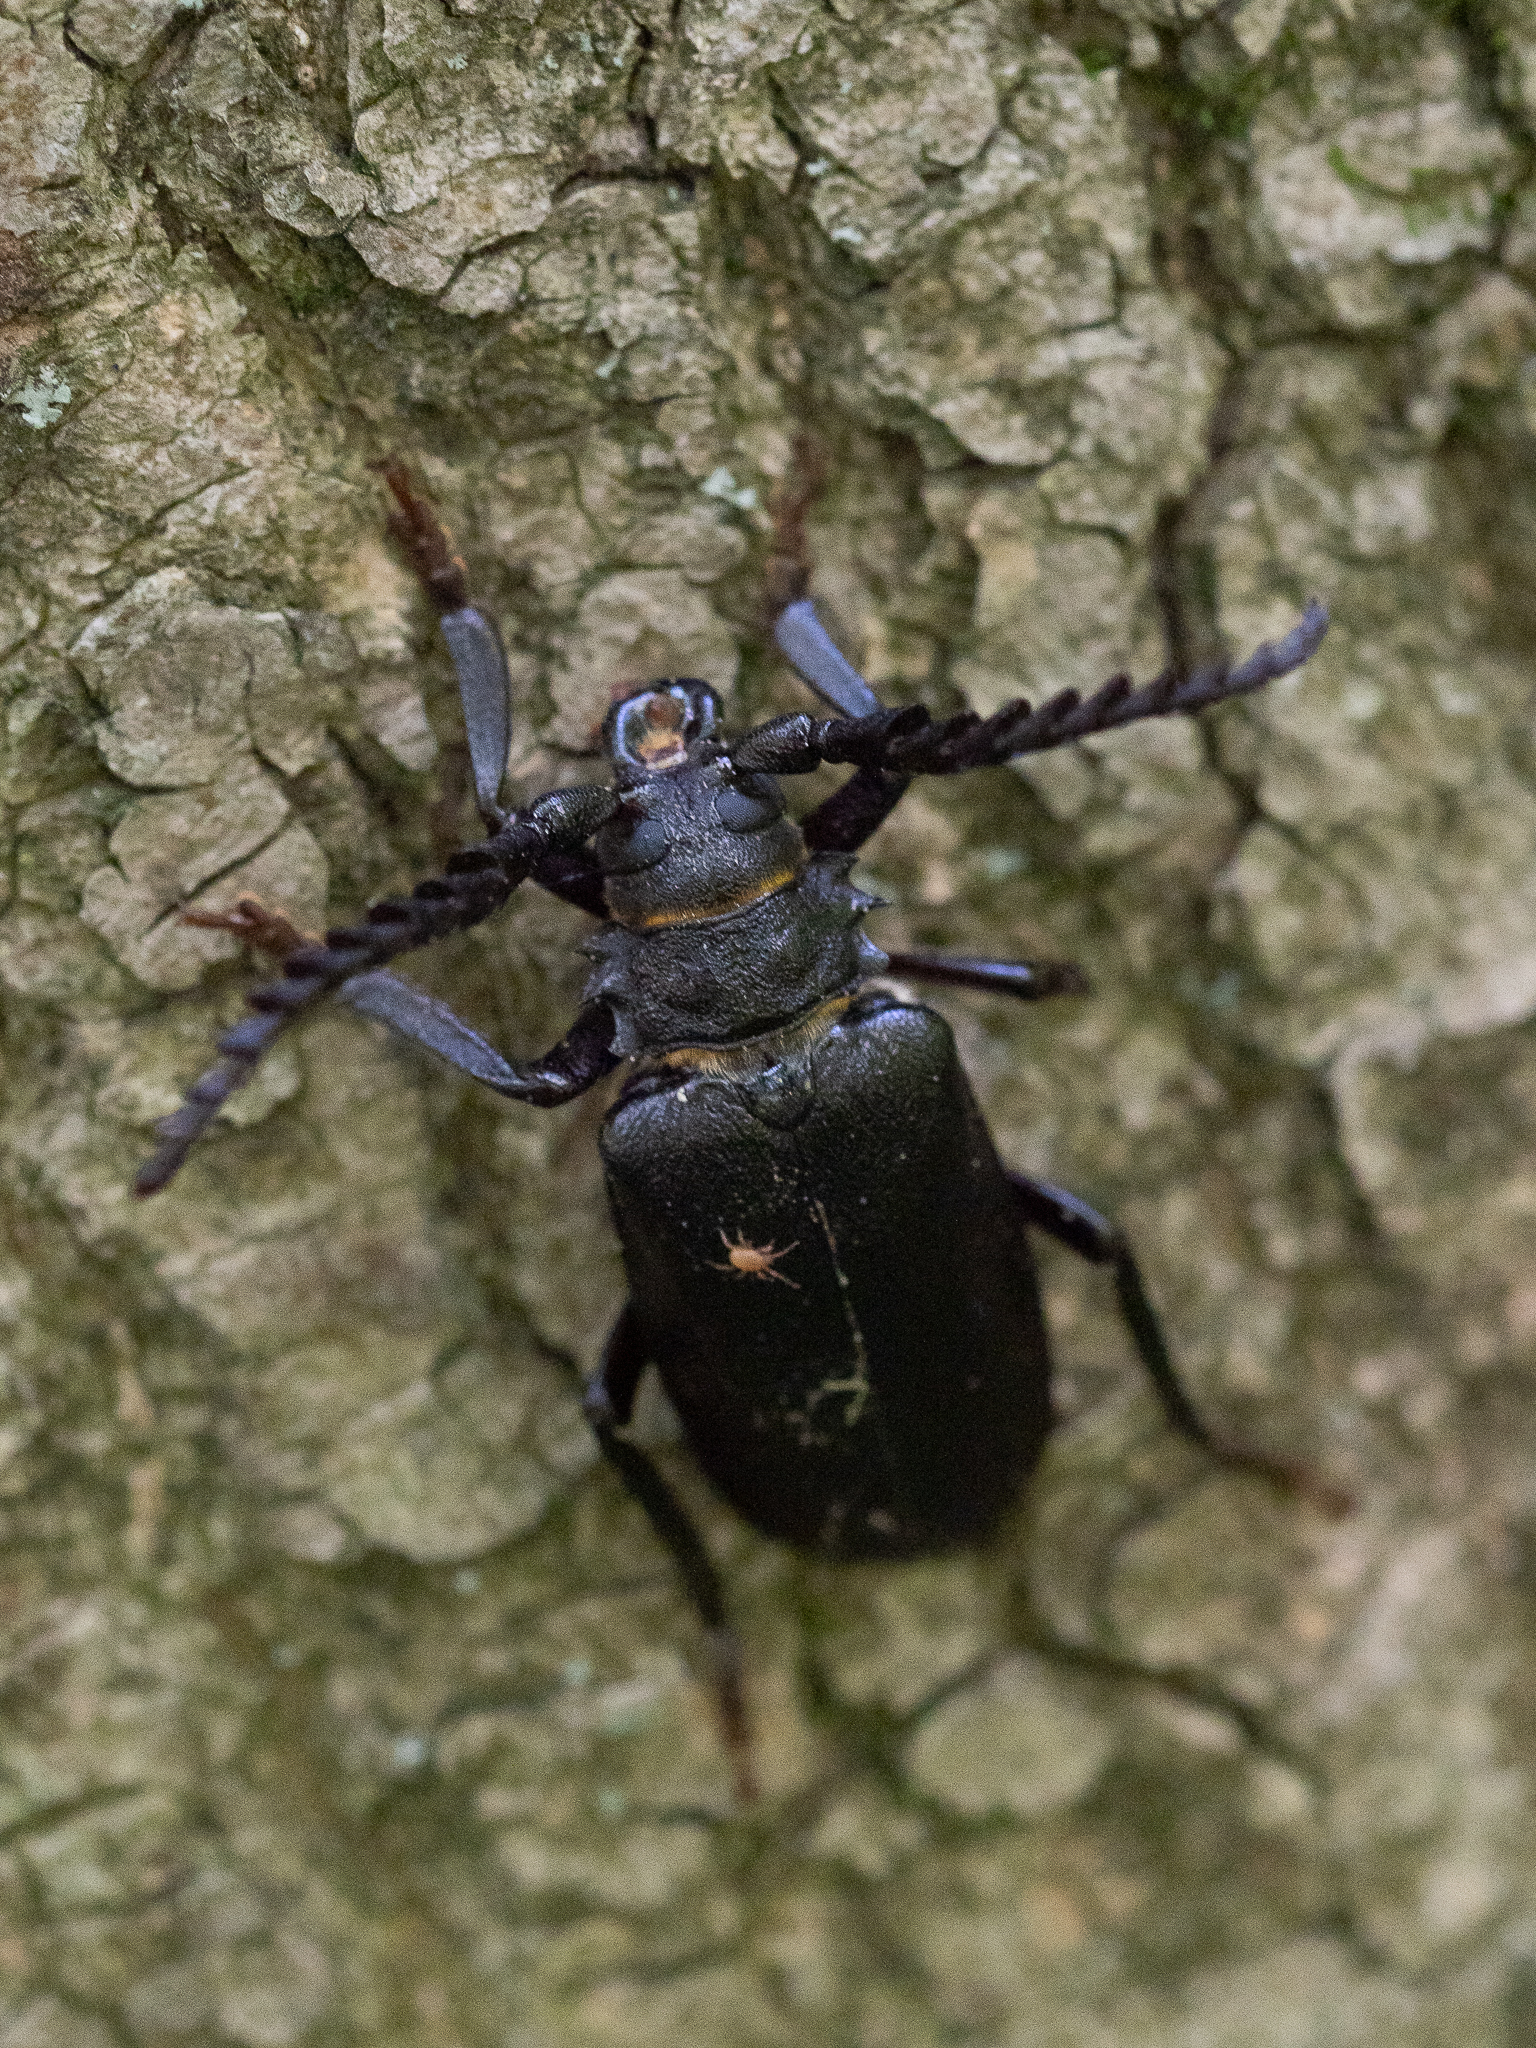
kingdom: Animalia
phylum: Arthropoda
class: Insecta
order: Coleoptera
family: Cerambycidae
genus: Prionus
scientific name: Prionus coriarius
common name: Tanner beetle
